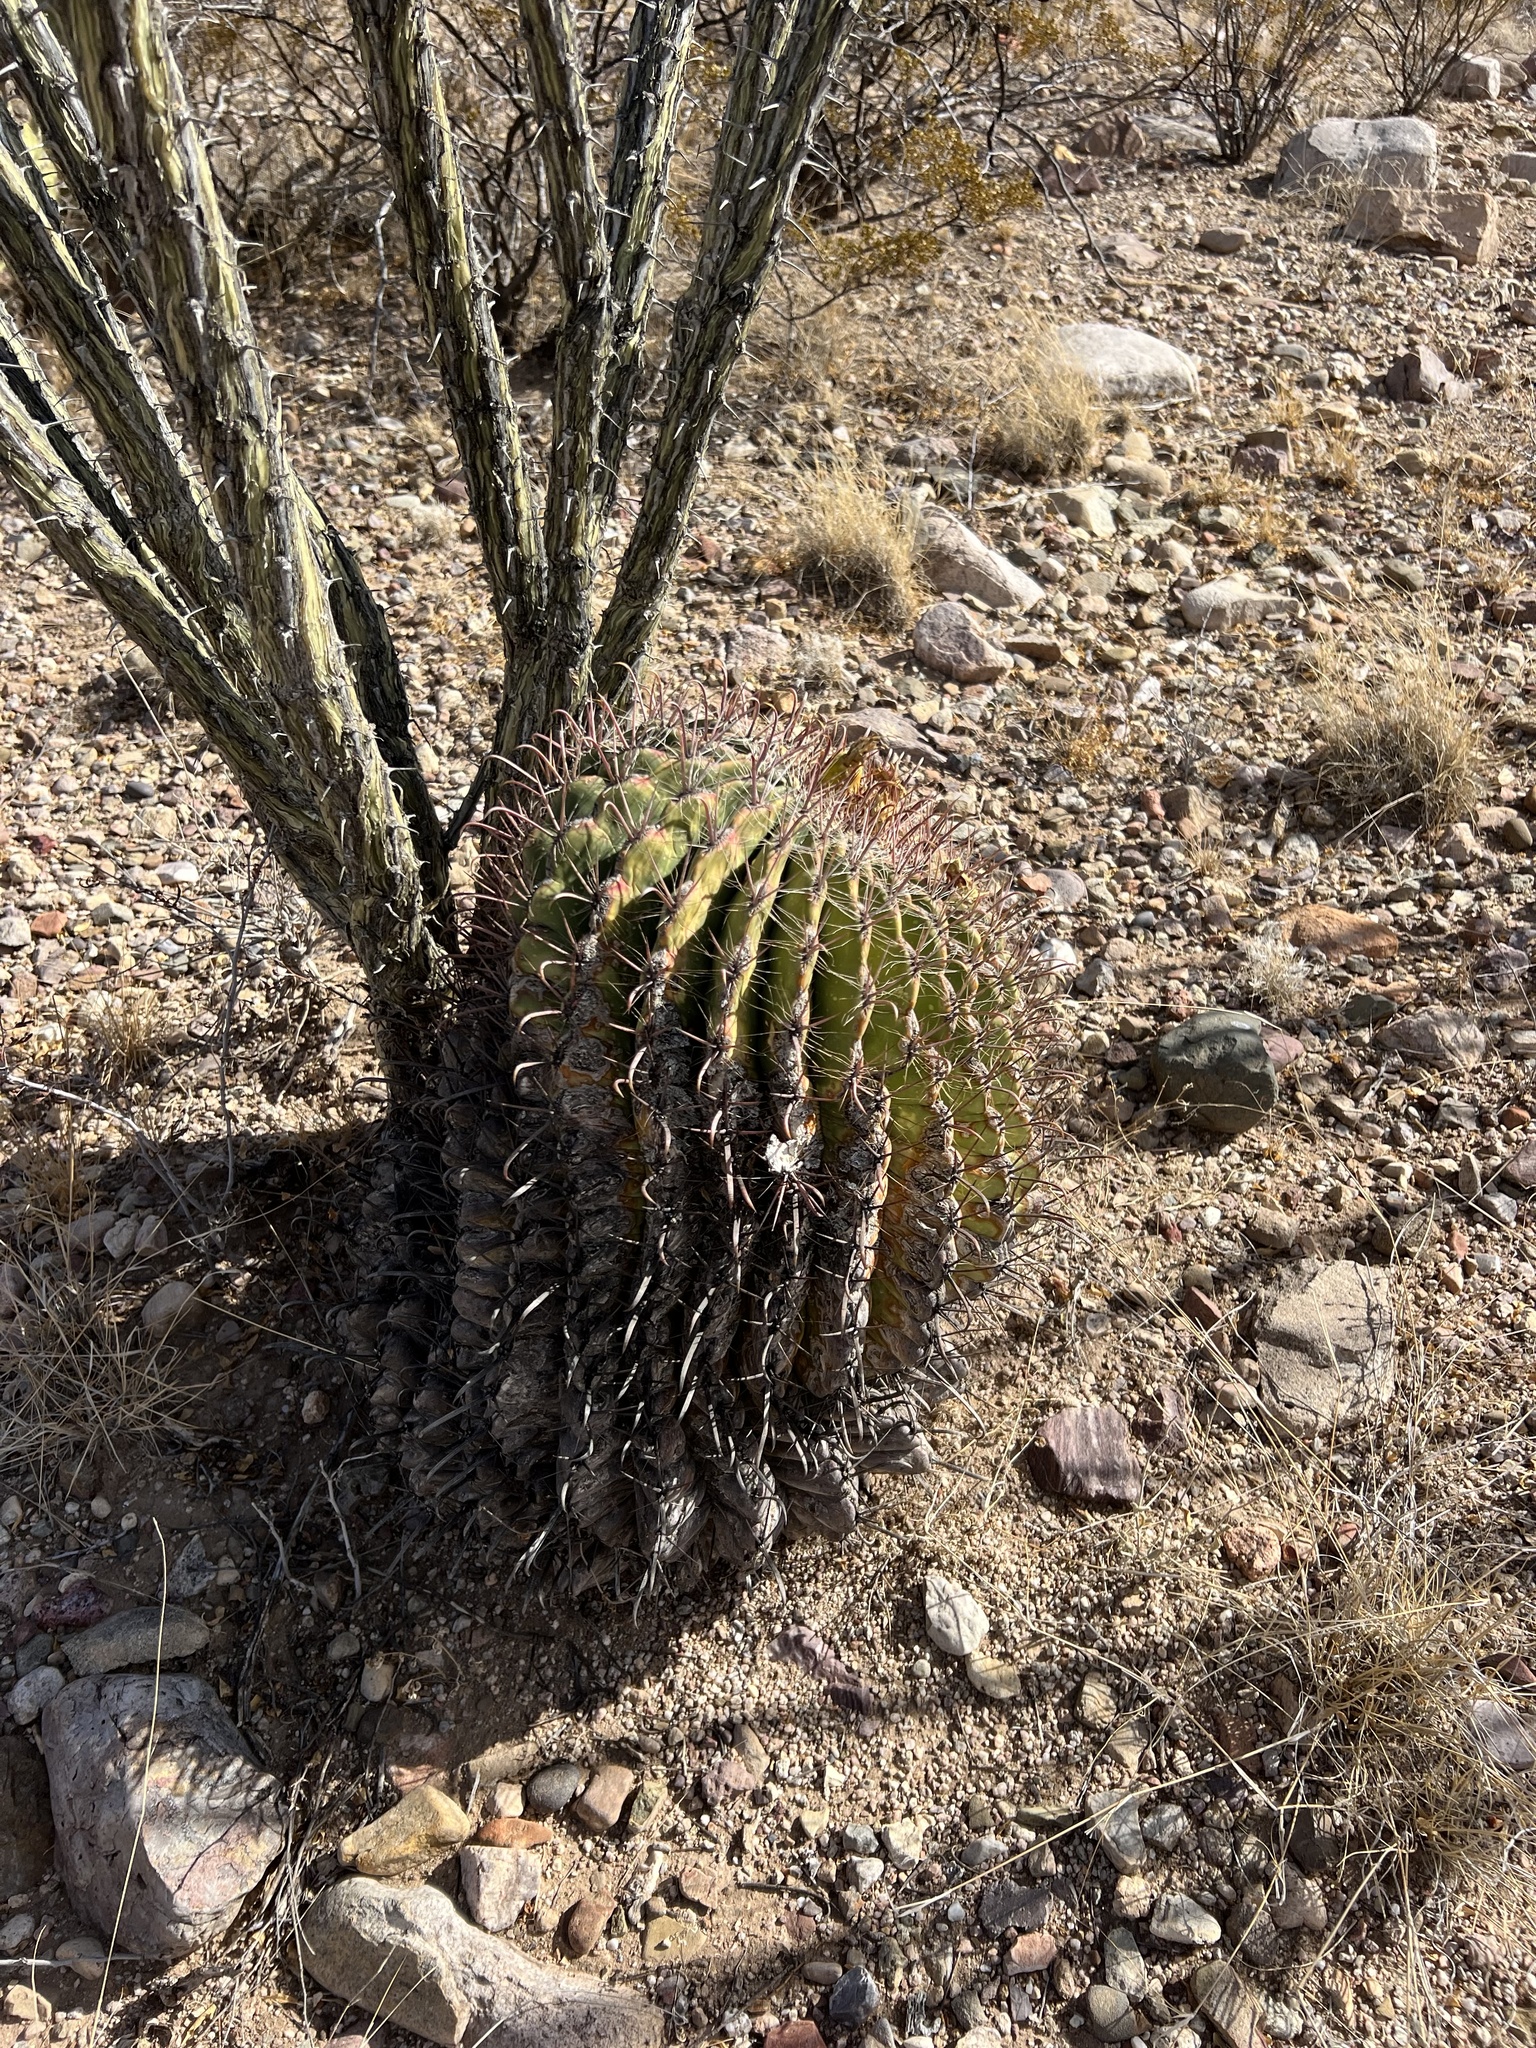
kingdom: Plantae
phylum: Tracheophyta
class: Magnoliopsida
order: Caryophyllales
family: Cactaceae
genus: Ferocactus
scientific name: Ferocactus wislizeni
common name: Candy barrel cactus
